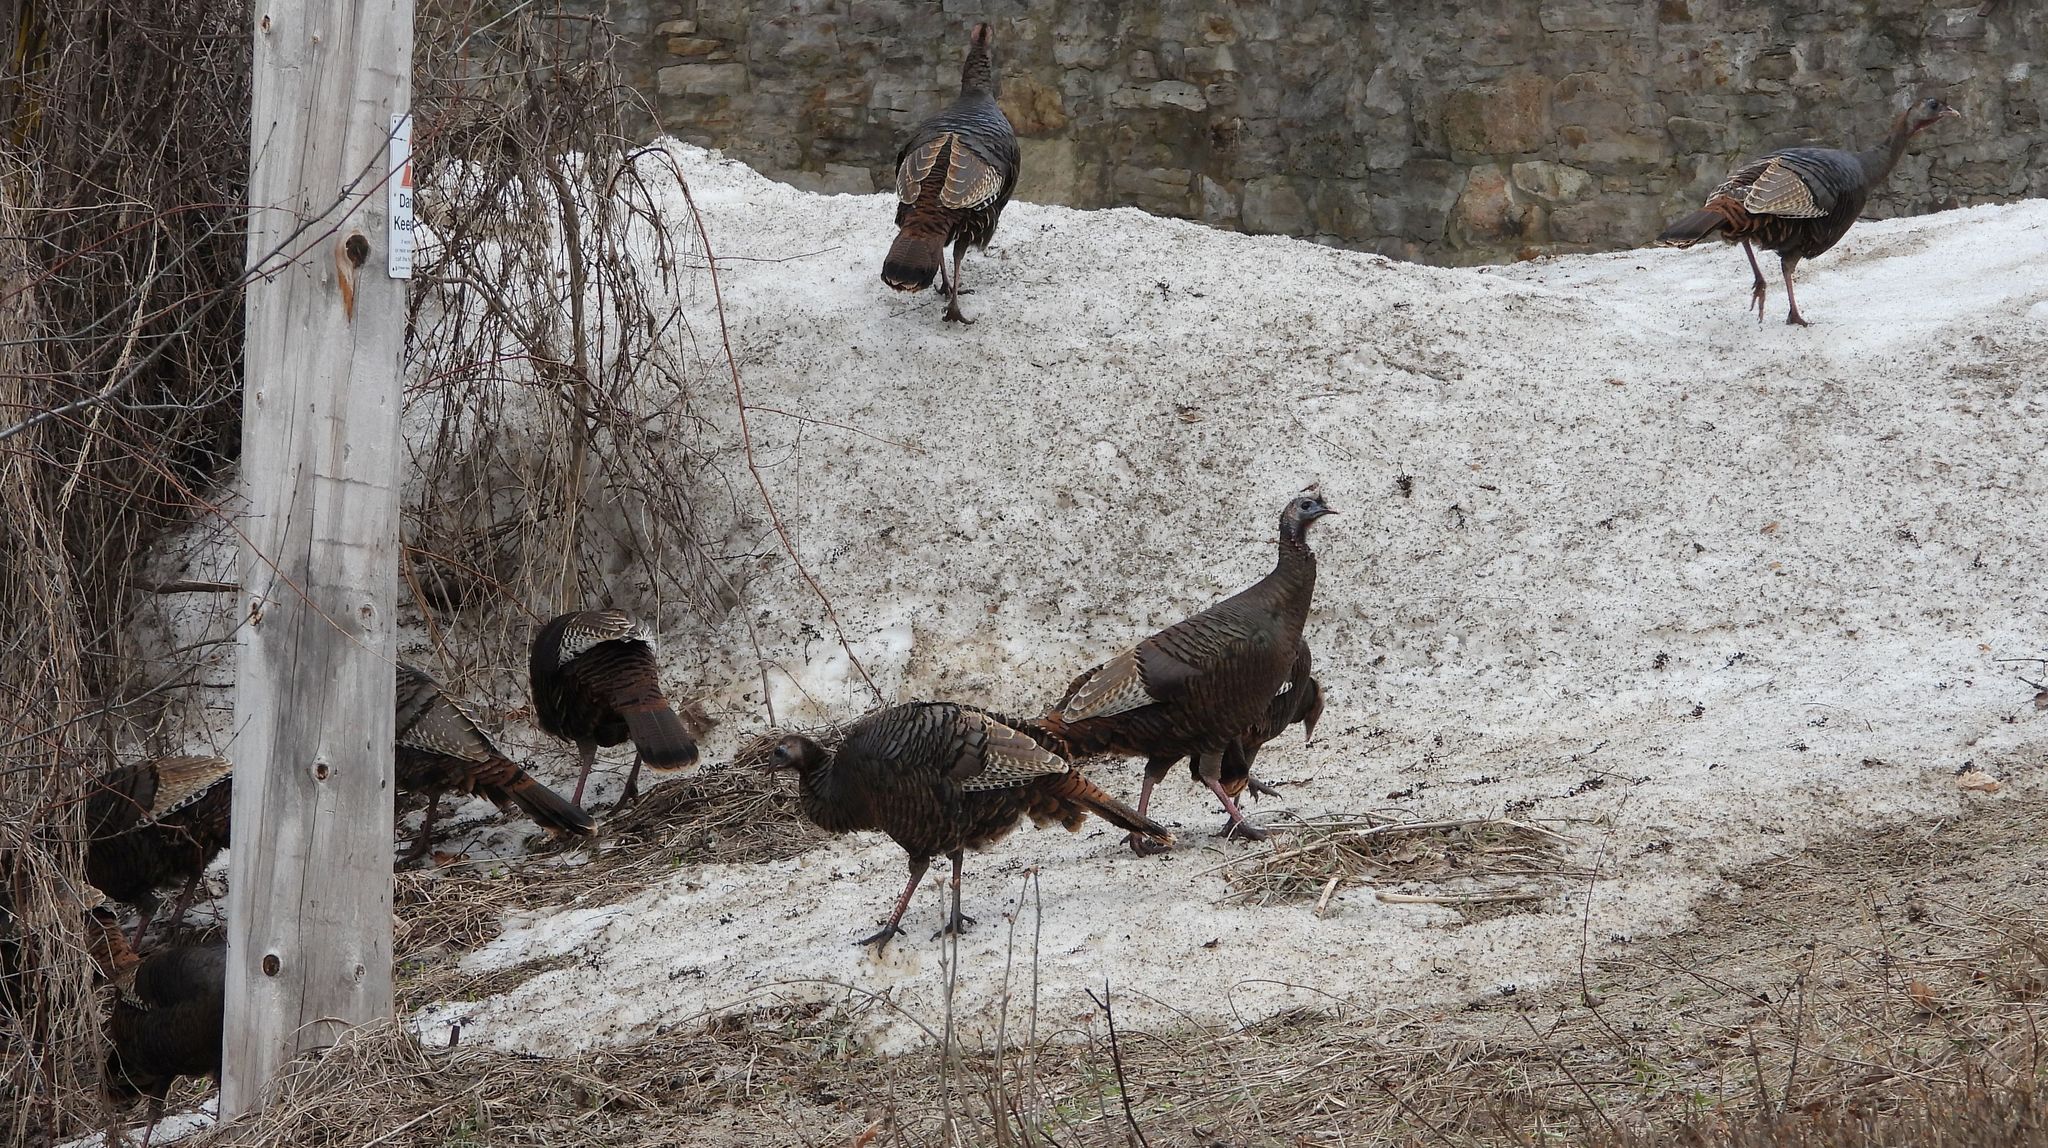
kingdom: Animalia
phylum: Chordata
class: Aves
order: Galliformes
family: Phasianidae
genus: Meleagris
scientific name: Meleagris gallopavo
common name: Wild turkey
